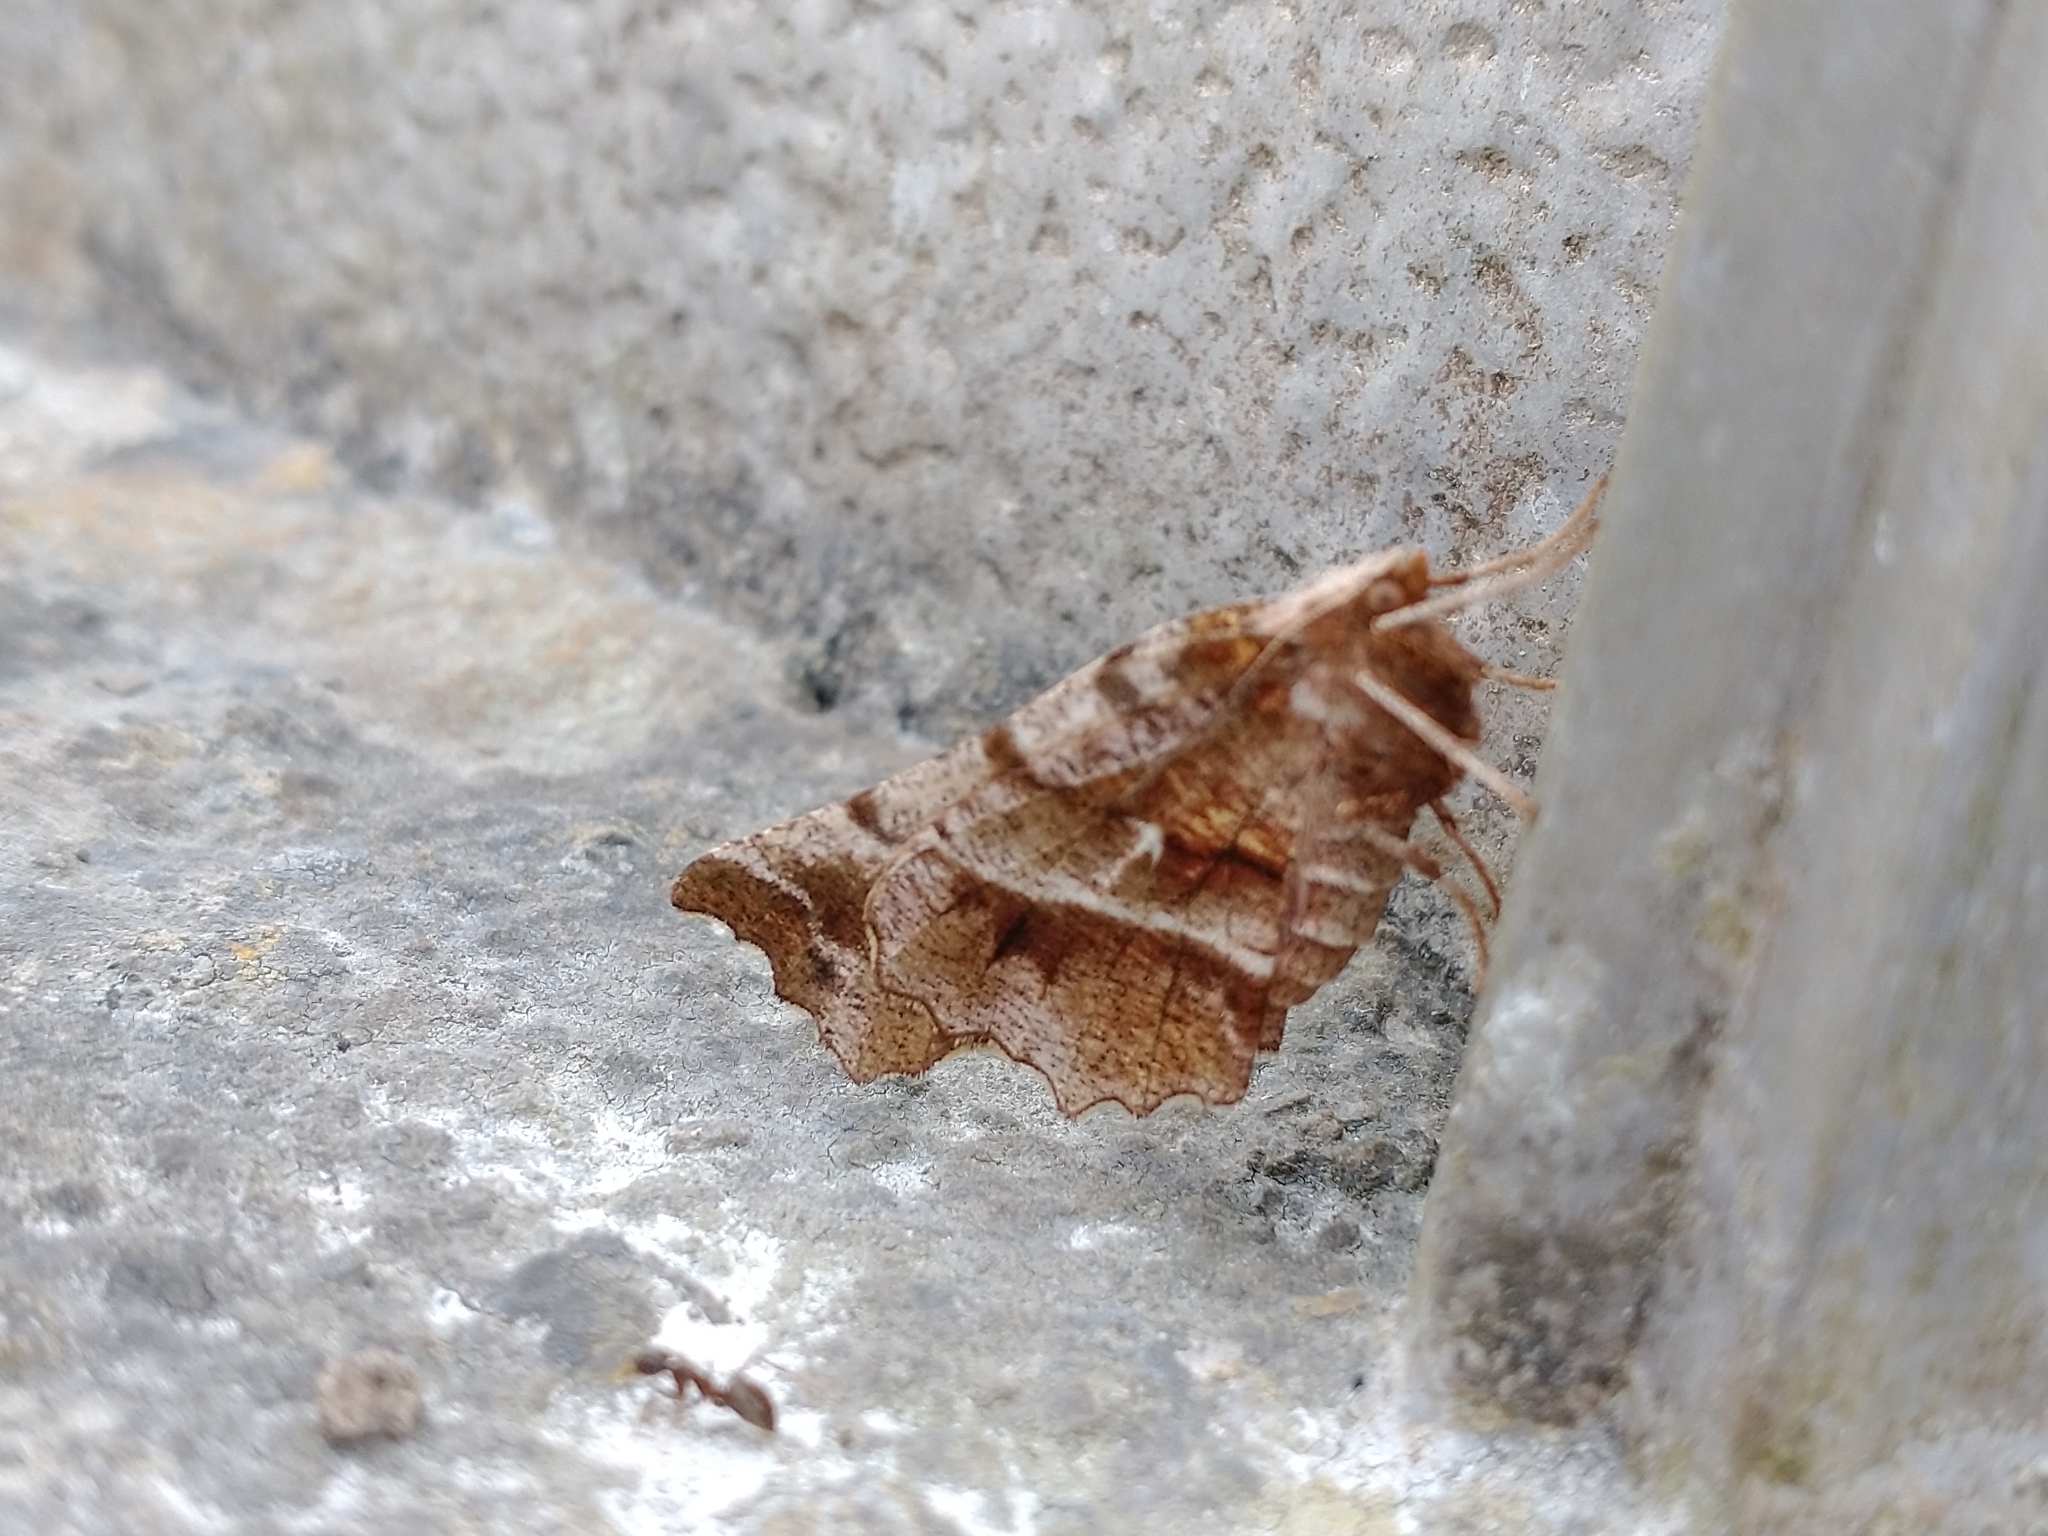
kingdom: Animalia
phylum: Arthropoda
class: Insecta
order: Lepidoptera
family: Geometridae
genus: Selenia
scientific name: Selenia dentaria
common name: Early thorn
